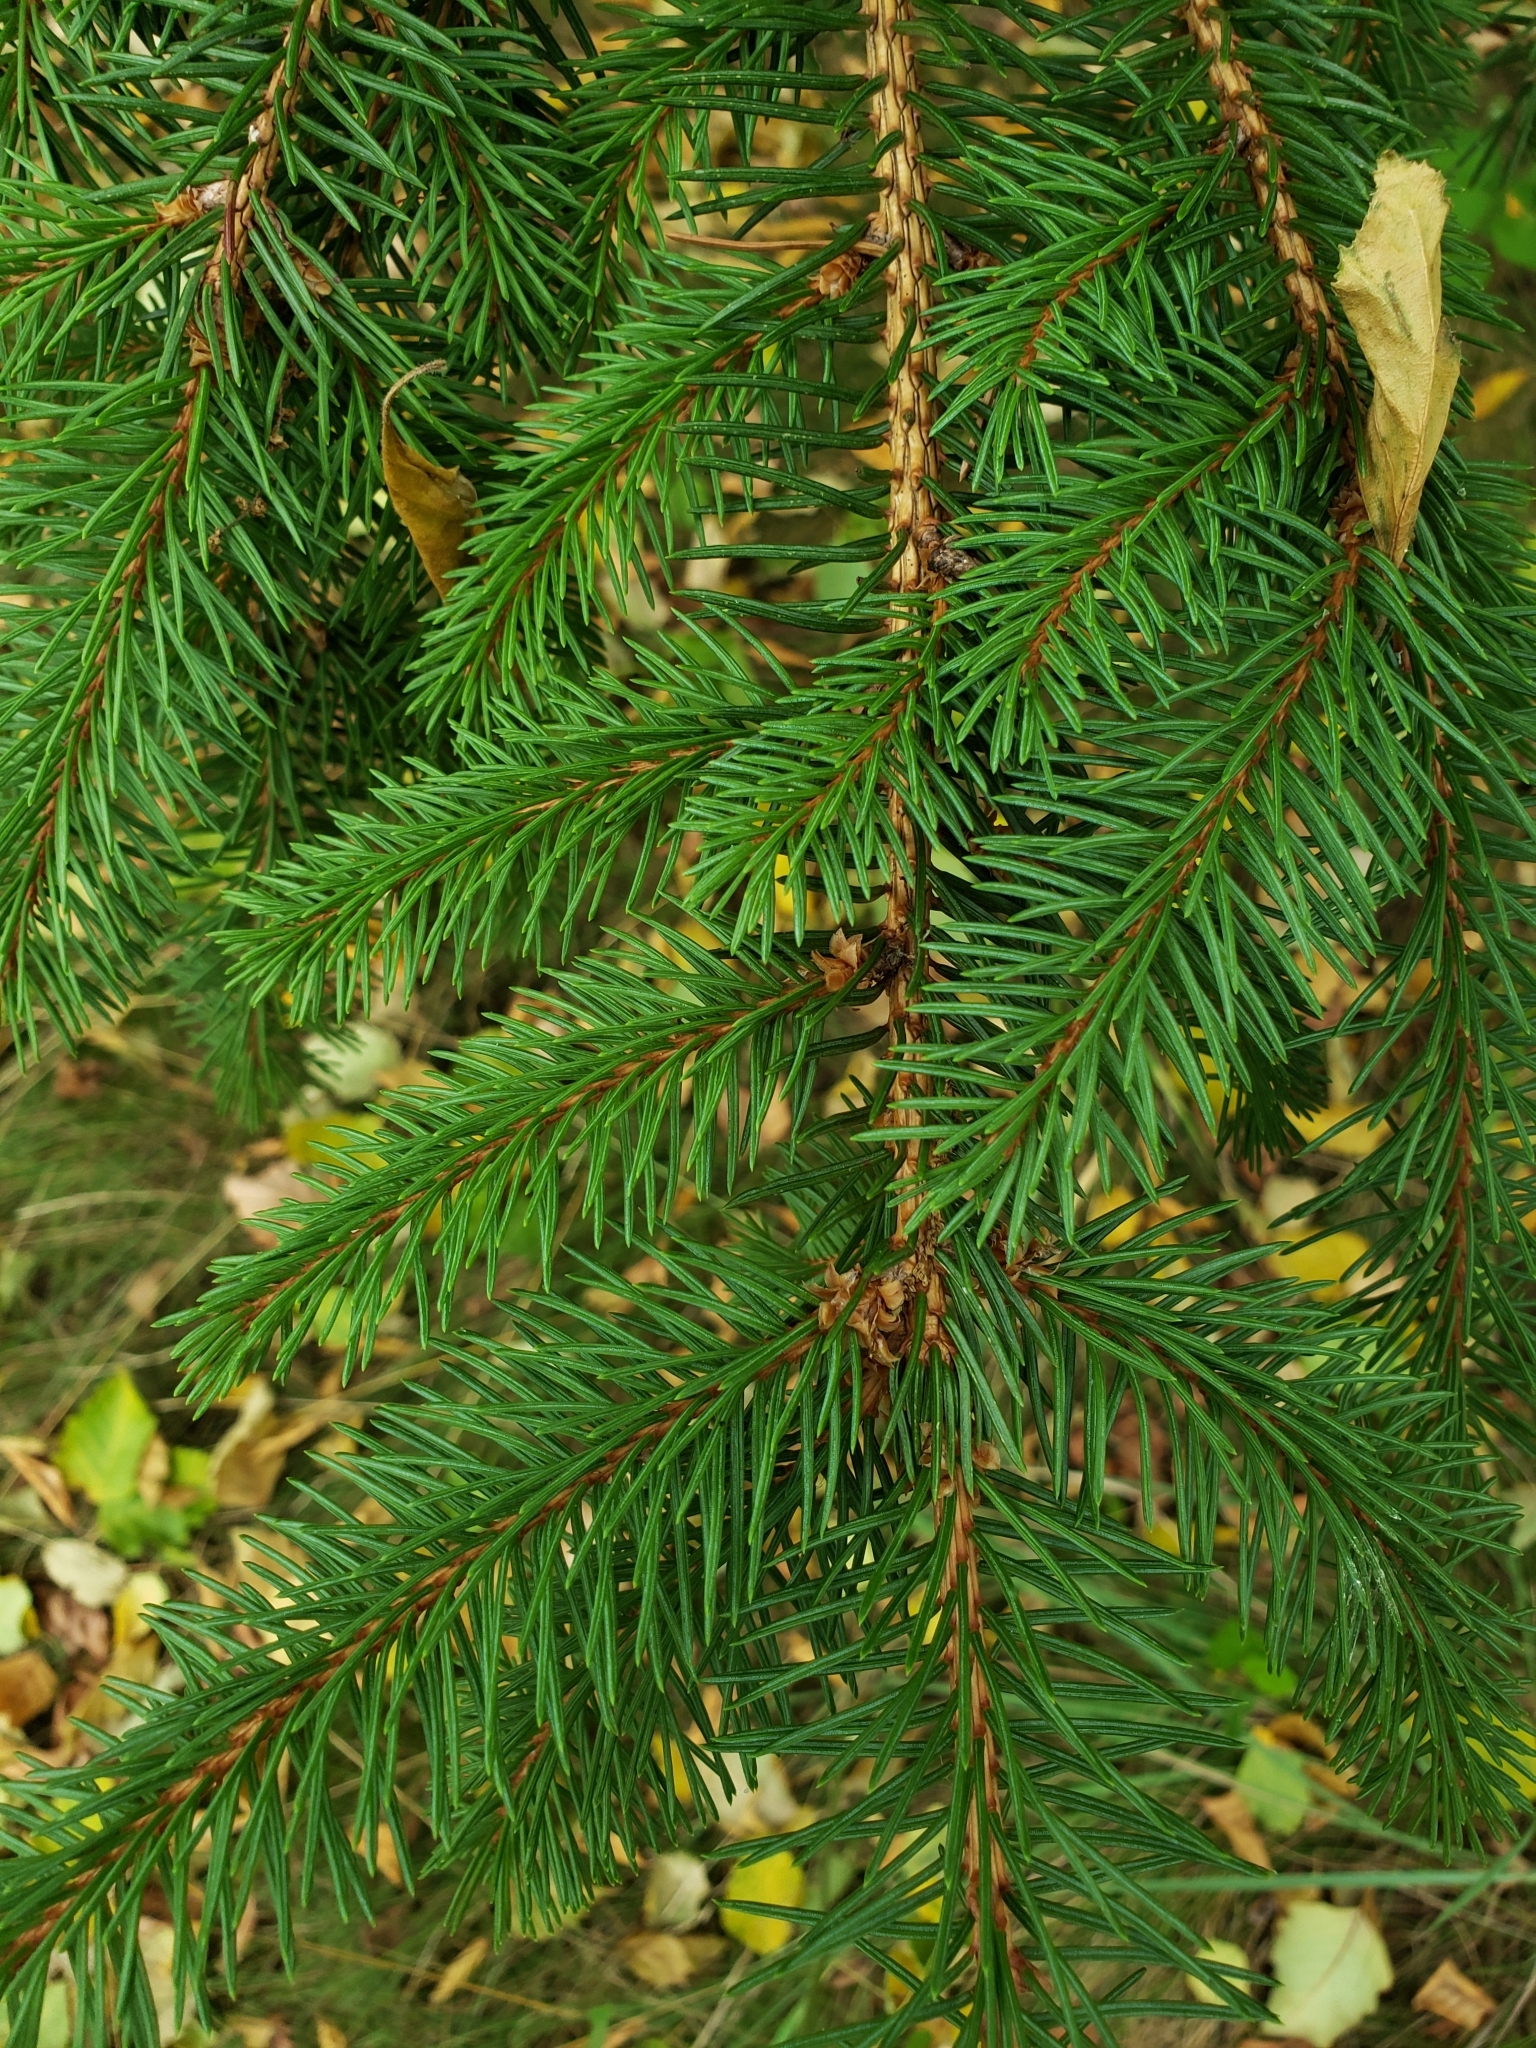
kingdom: Plantae
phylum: Tracheophyta
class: Pinopsida
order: Pinales
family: Pinaceae
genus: Picea
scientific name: Picea abies
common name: Norway spruce
